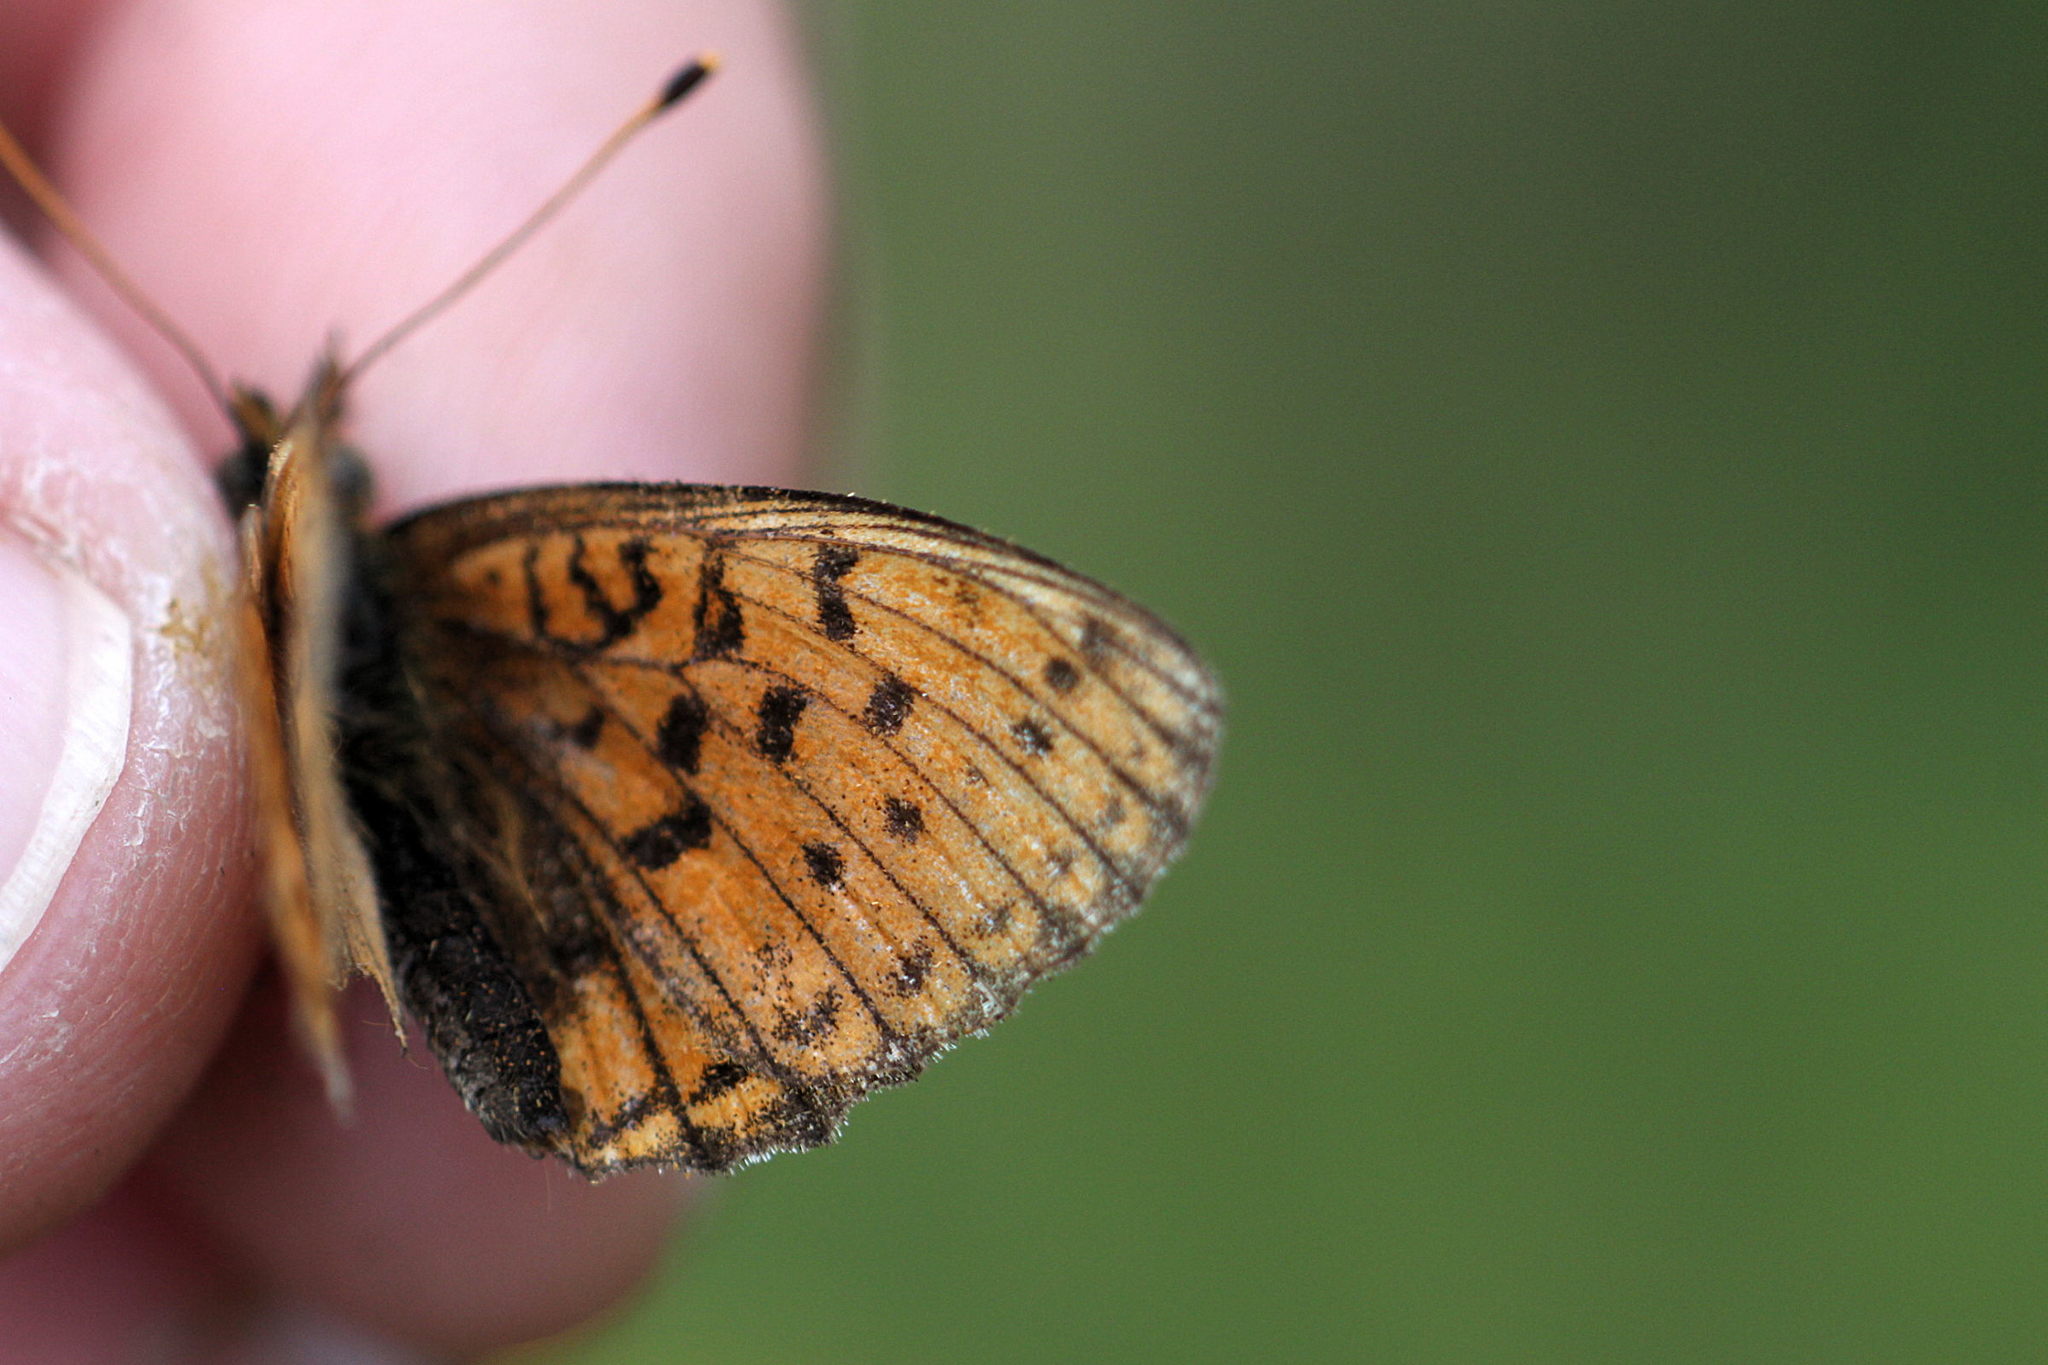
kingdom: Animalia
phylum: Arthropoda
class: Insecta
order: Lepidoptera
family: Nymphalidae
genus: Brenthis
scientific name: Brenthis ino
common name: Lesser marbled fritillary
